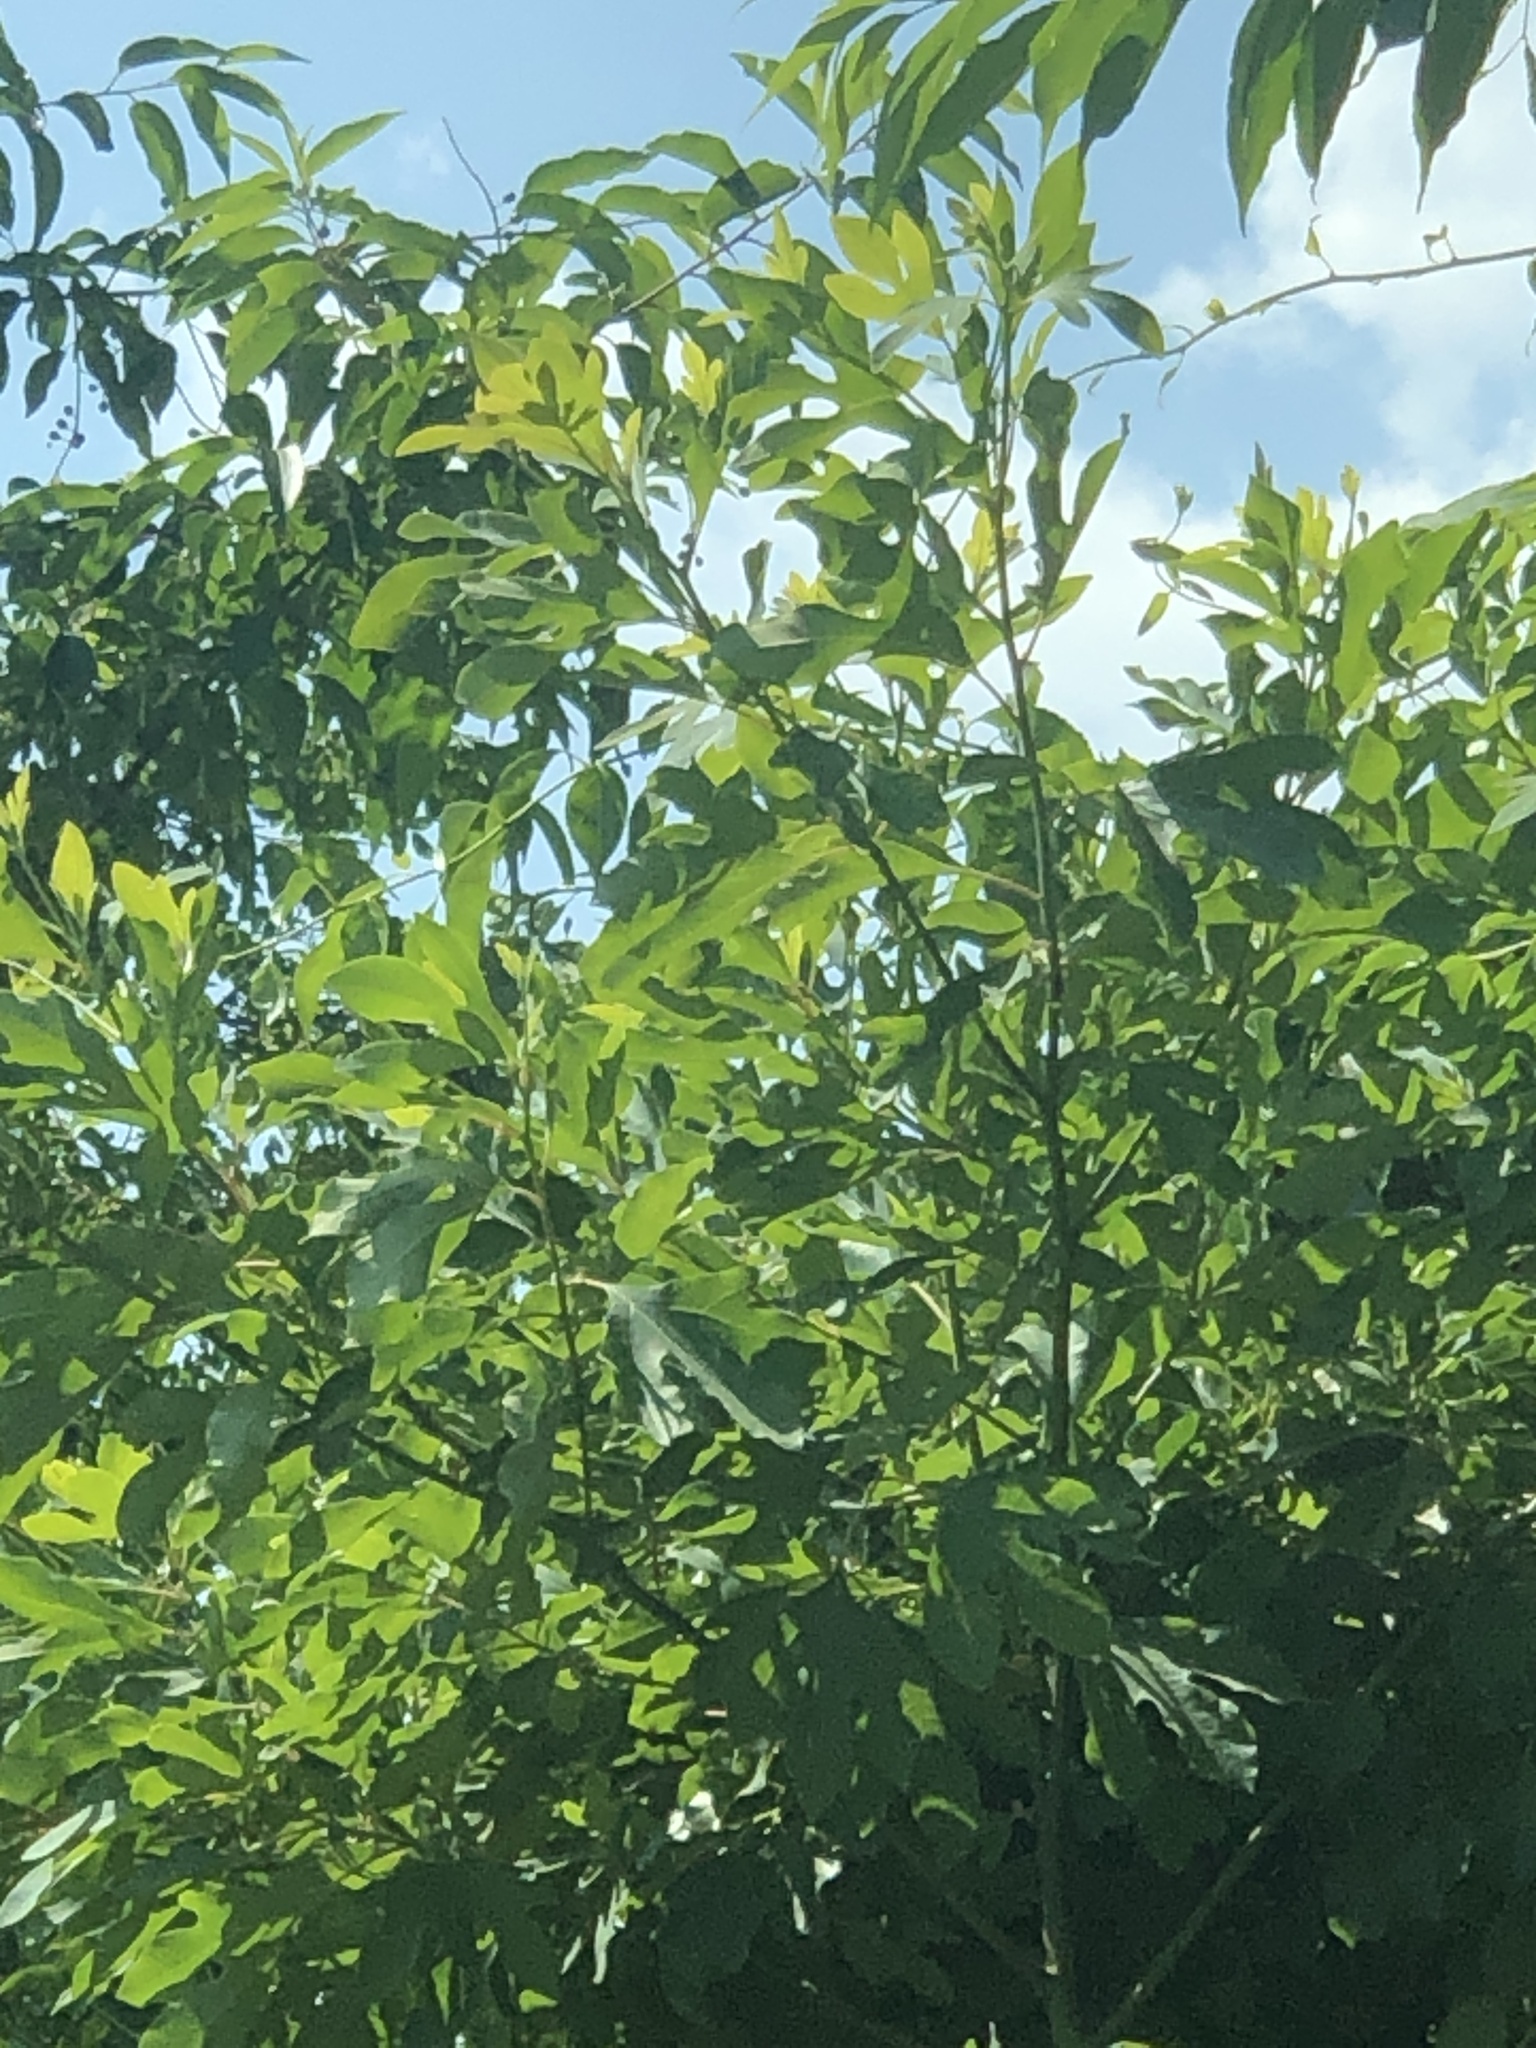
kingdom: Plantae
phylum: Tracheophyta
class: Magnoliopsida
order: Laurales
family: Lauraceae
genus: Sassafras
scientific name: Sassafras albidum
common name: Sassafras
